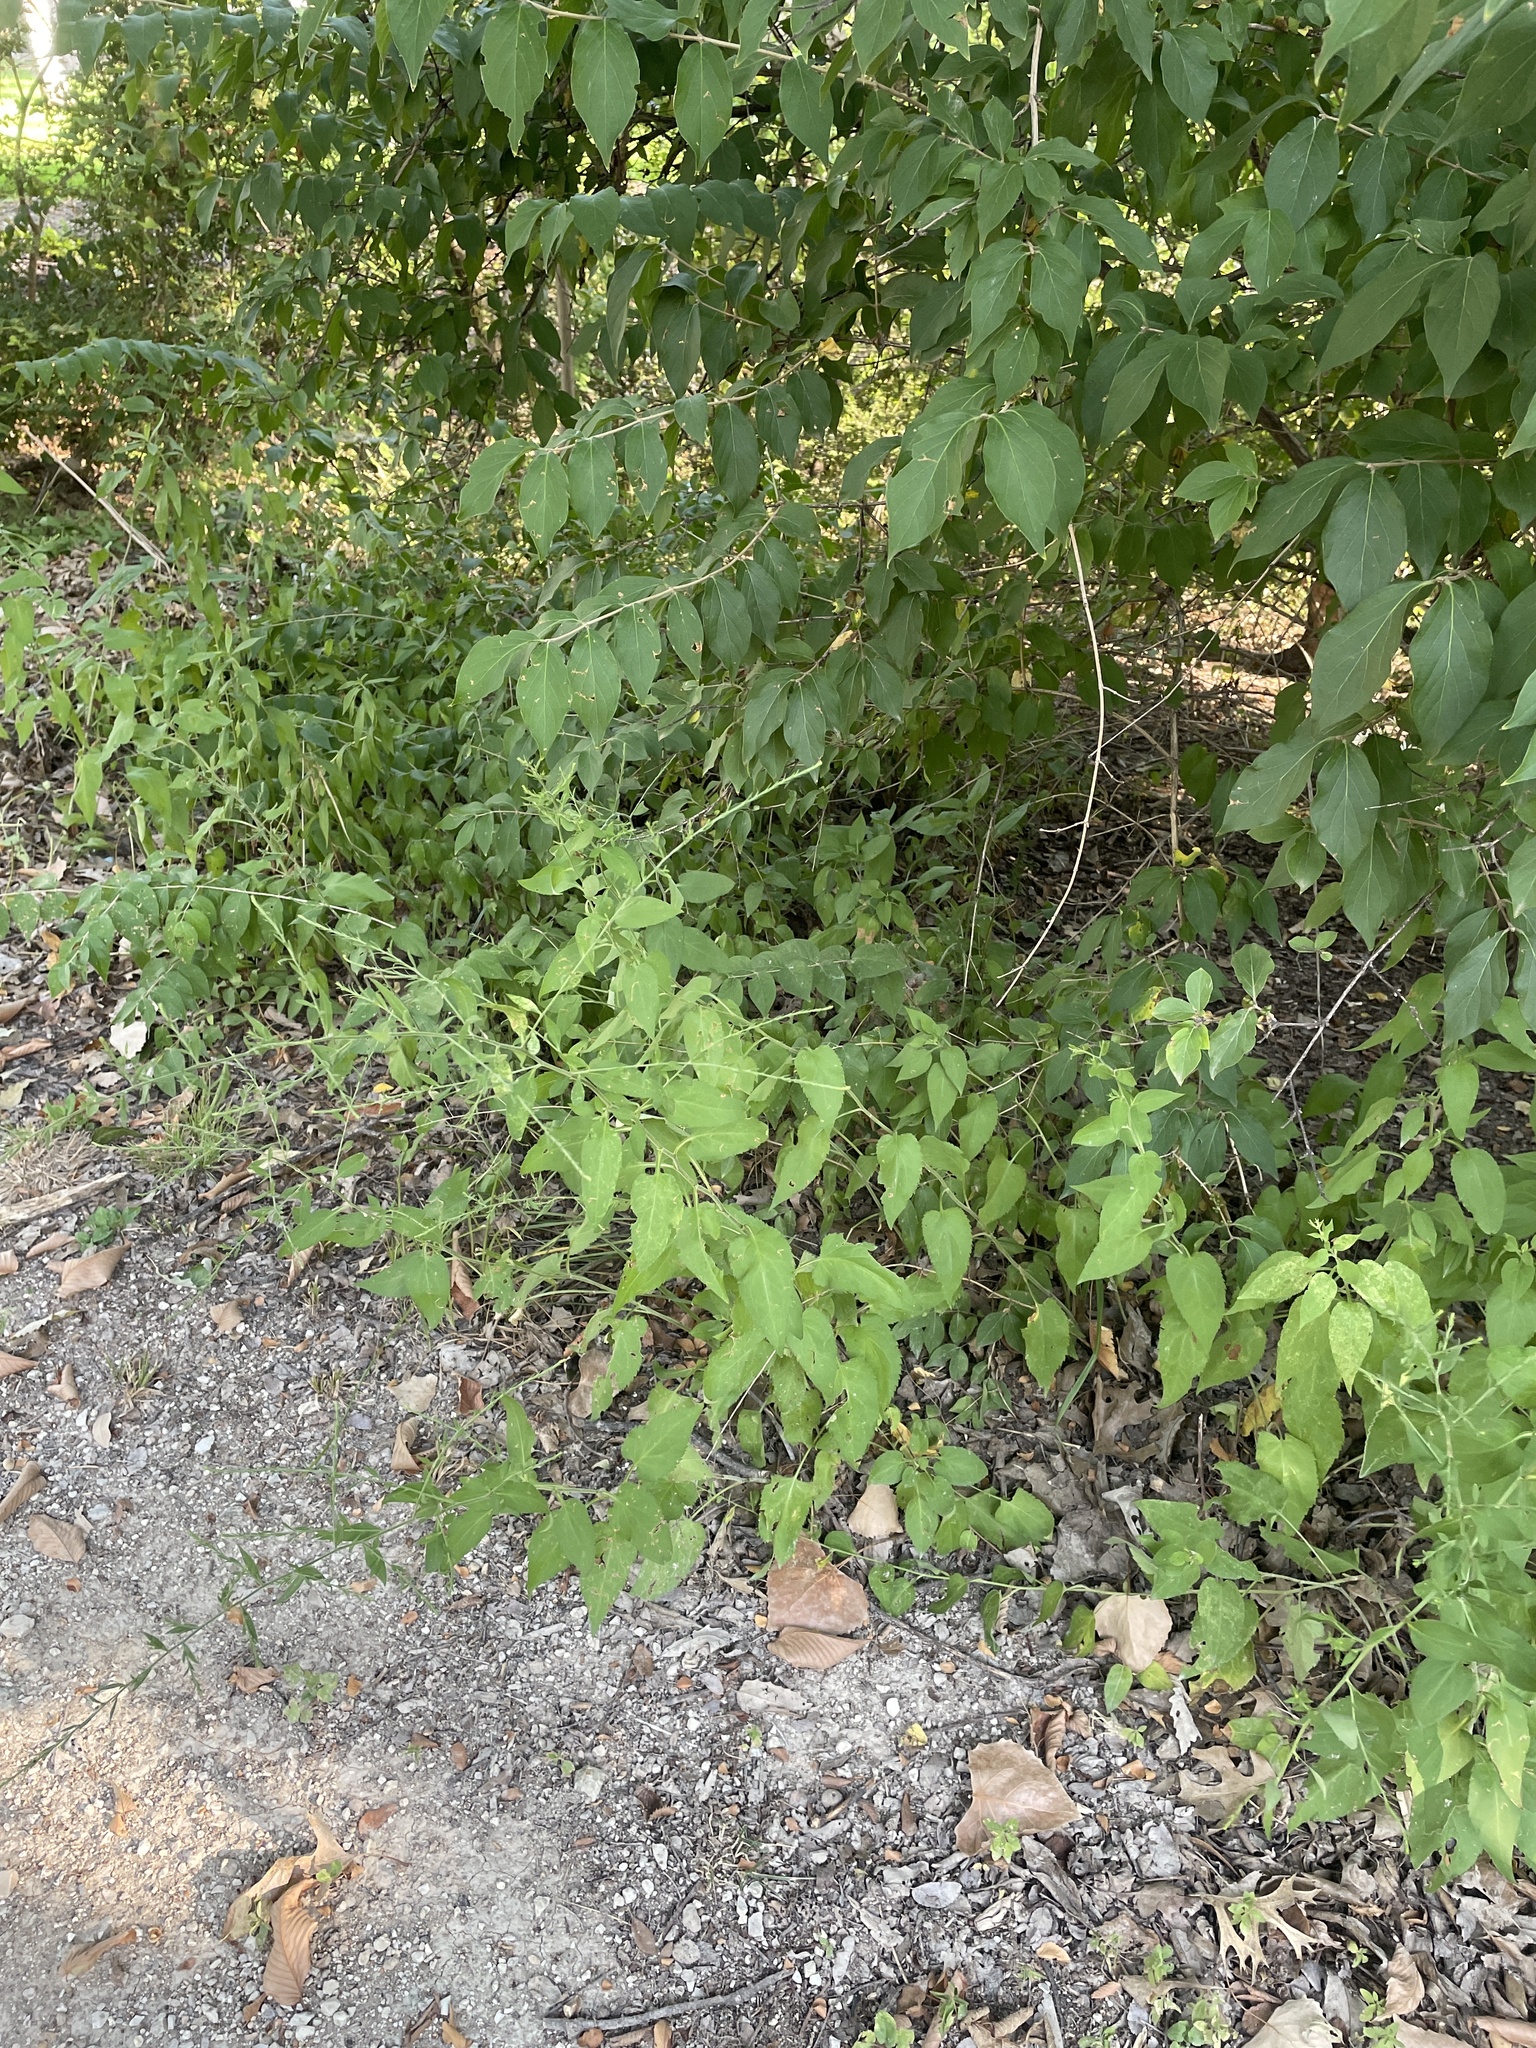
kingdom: Plantae
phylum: Tracheophyta
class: Magnoliopsida
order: Asterales
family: Asteraceae
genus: Symphyotrichum
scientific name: Symphyotrichum drummondii
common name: Drummond's aster
